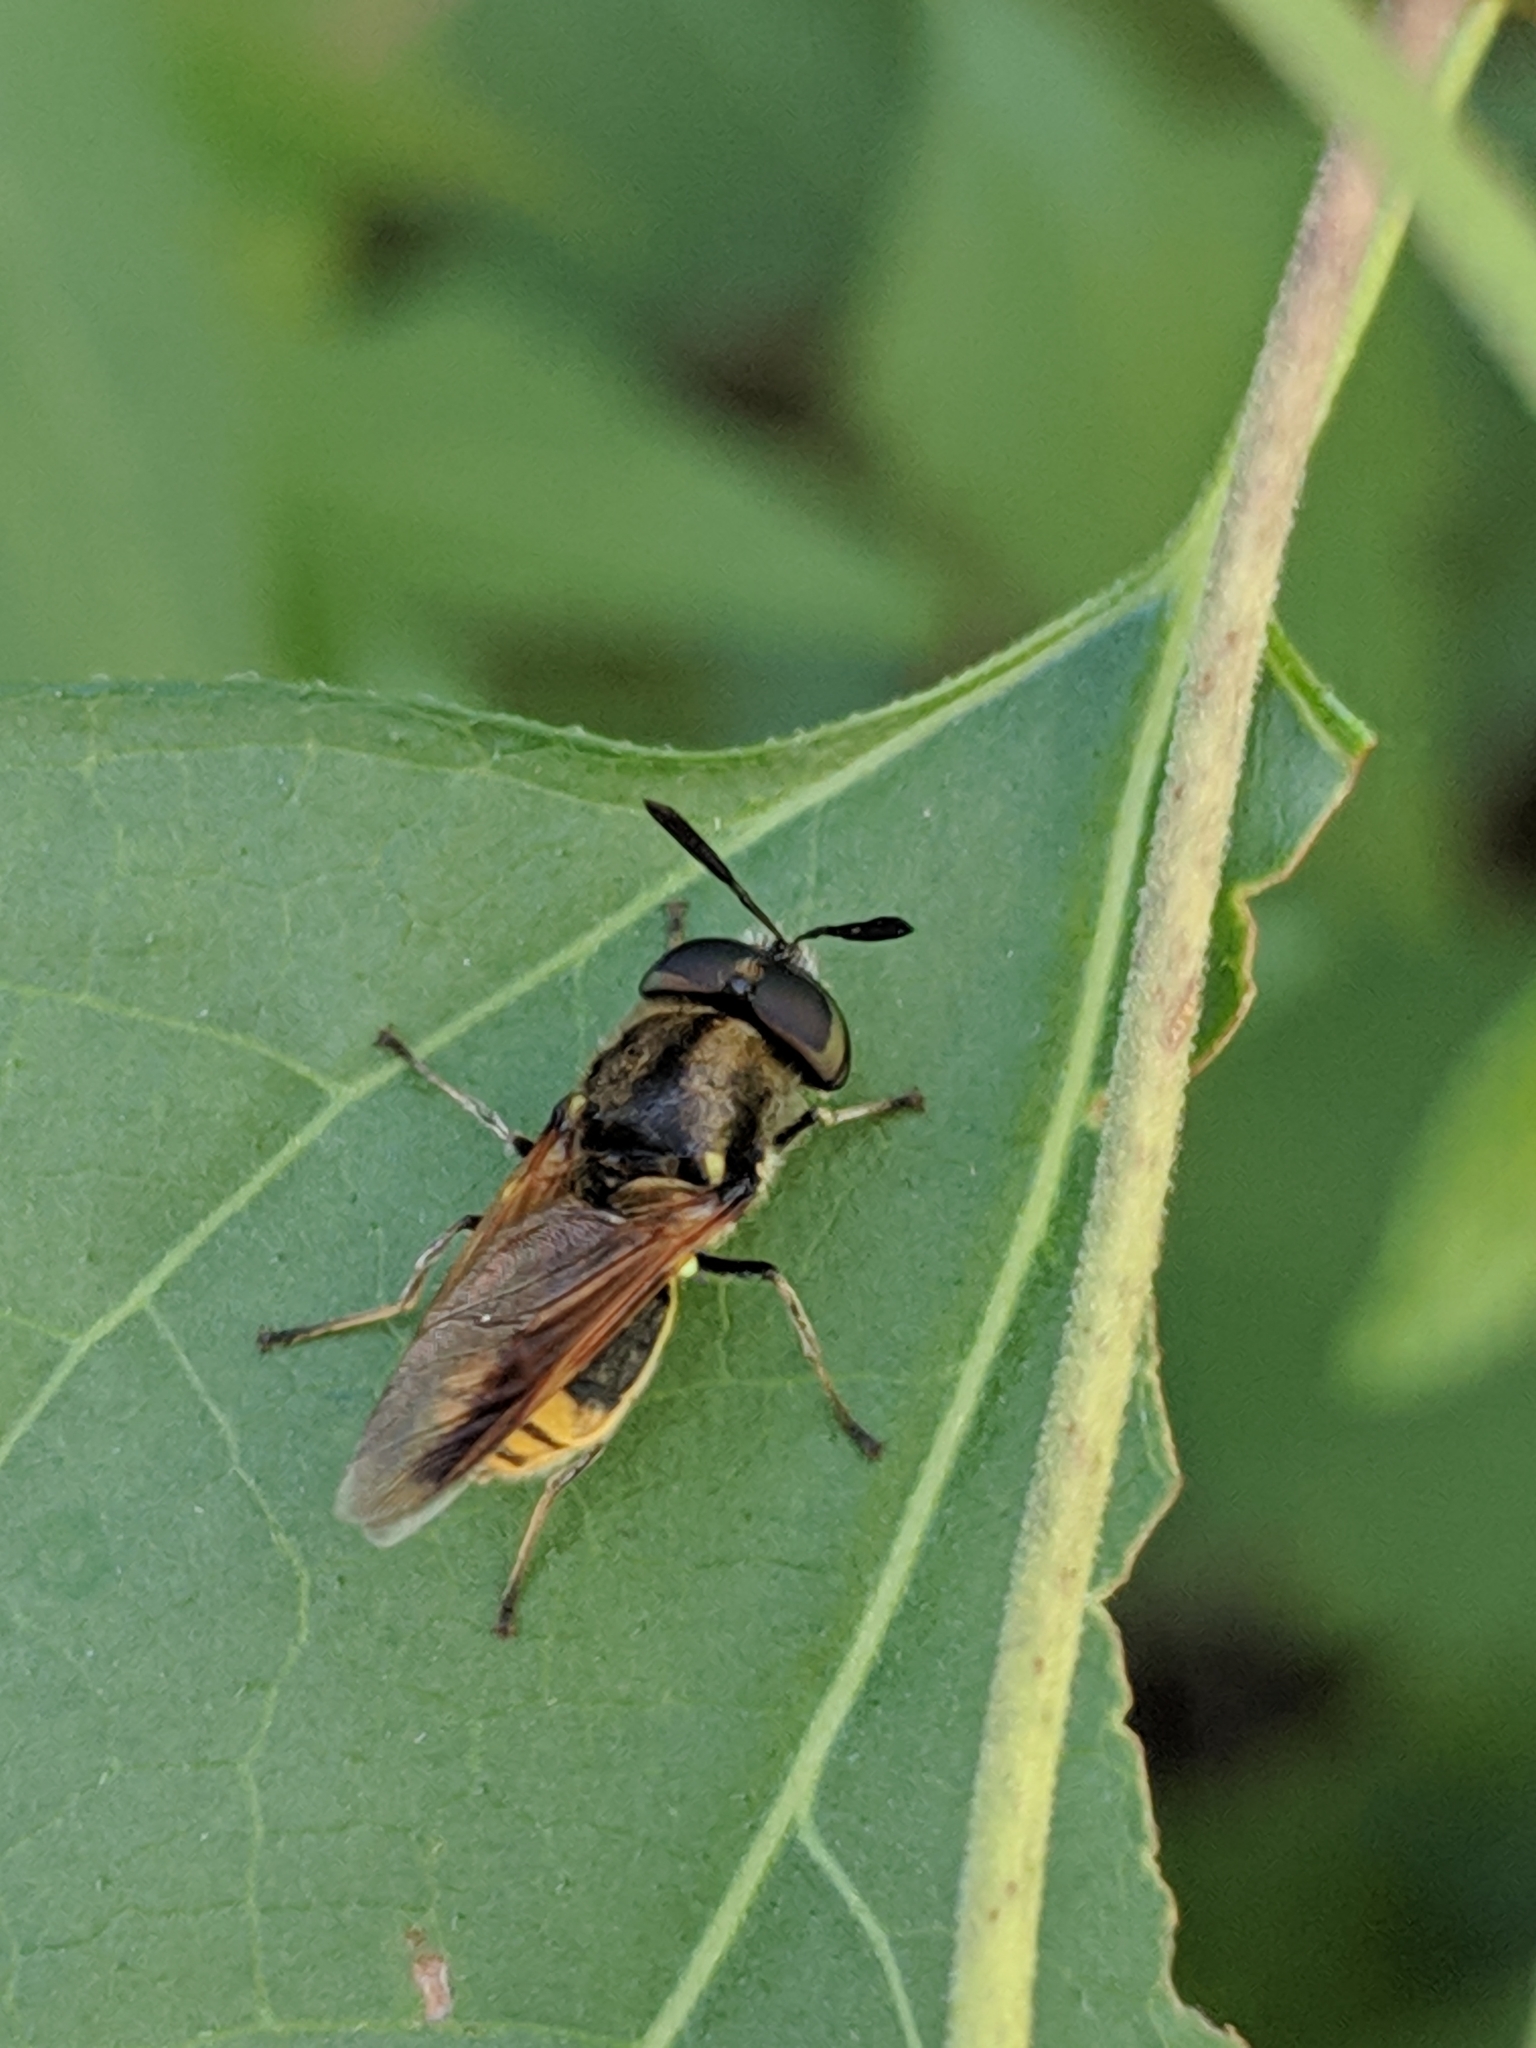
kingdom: Animalia
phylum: Arthropoda
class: Insecta
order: Diptera
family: Stratiomyidae
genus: Hoplitimyia
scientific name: Hoplitimyia mutabilis
